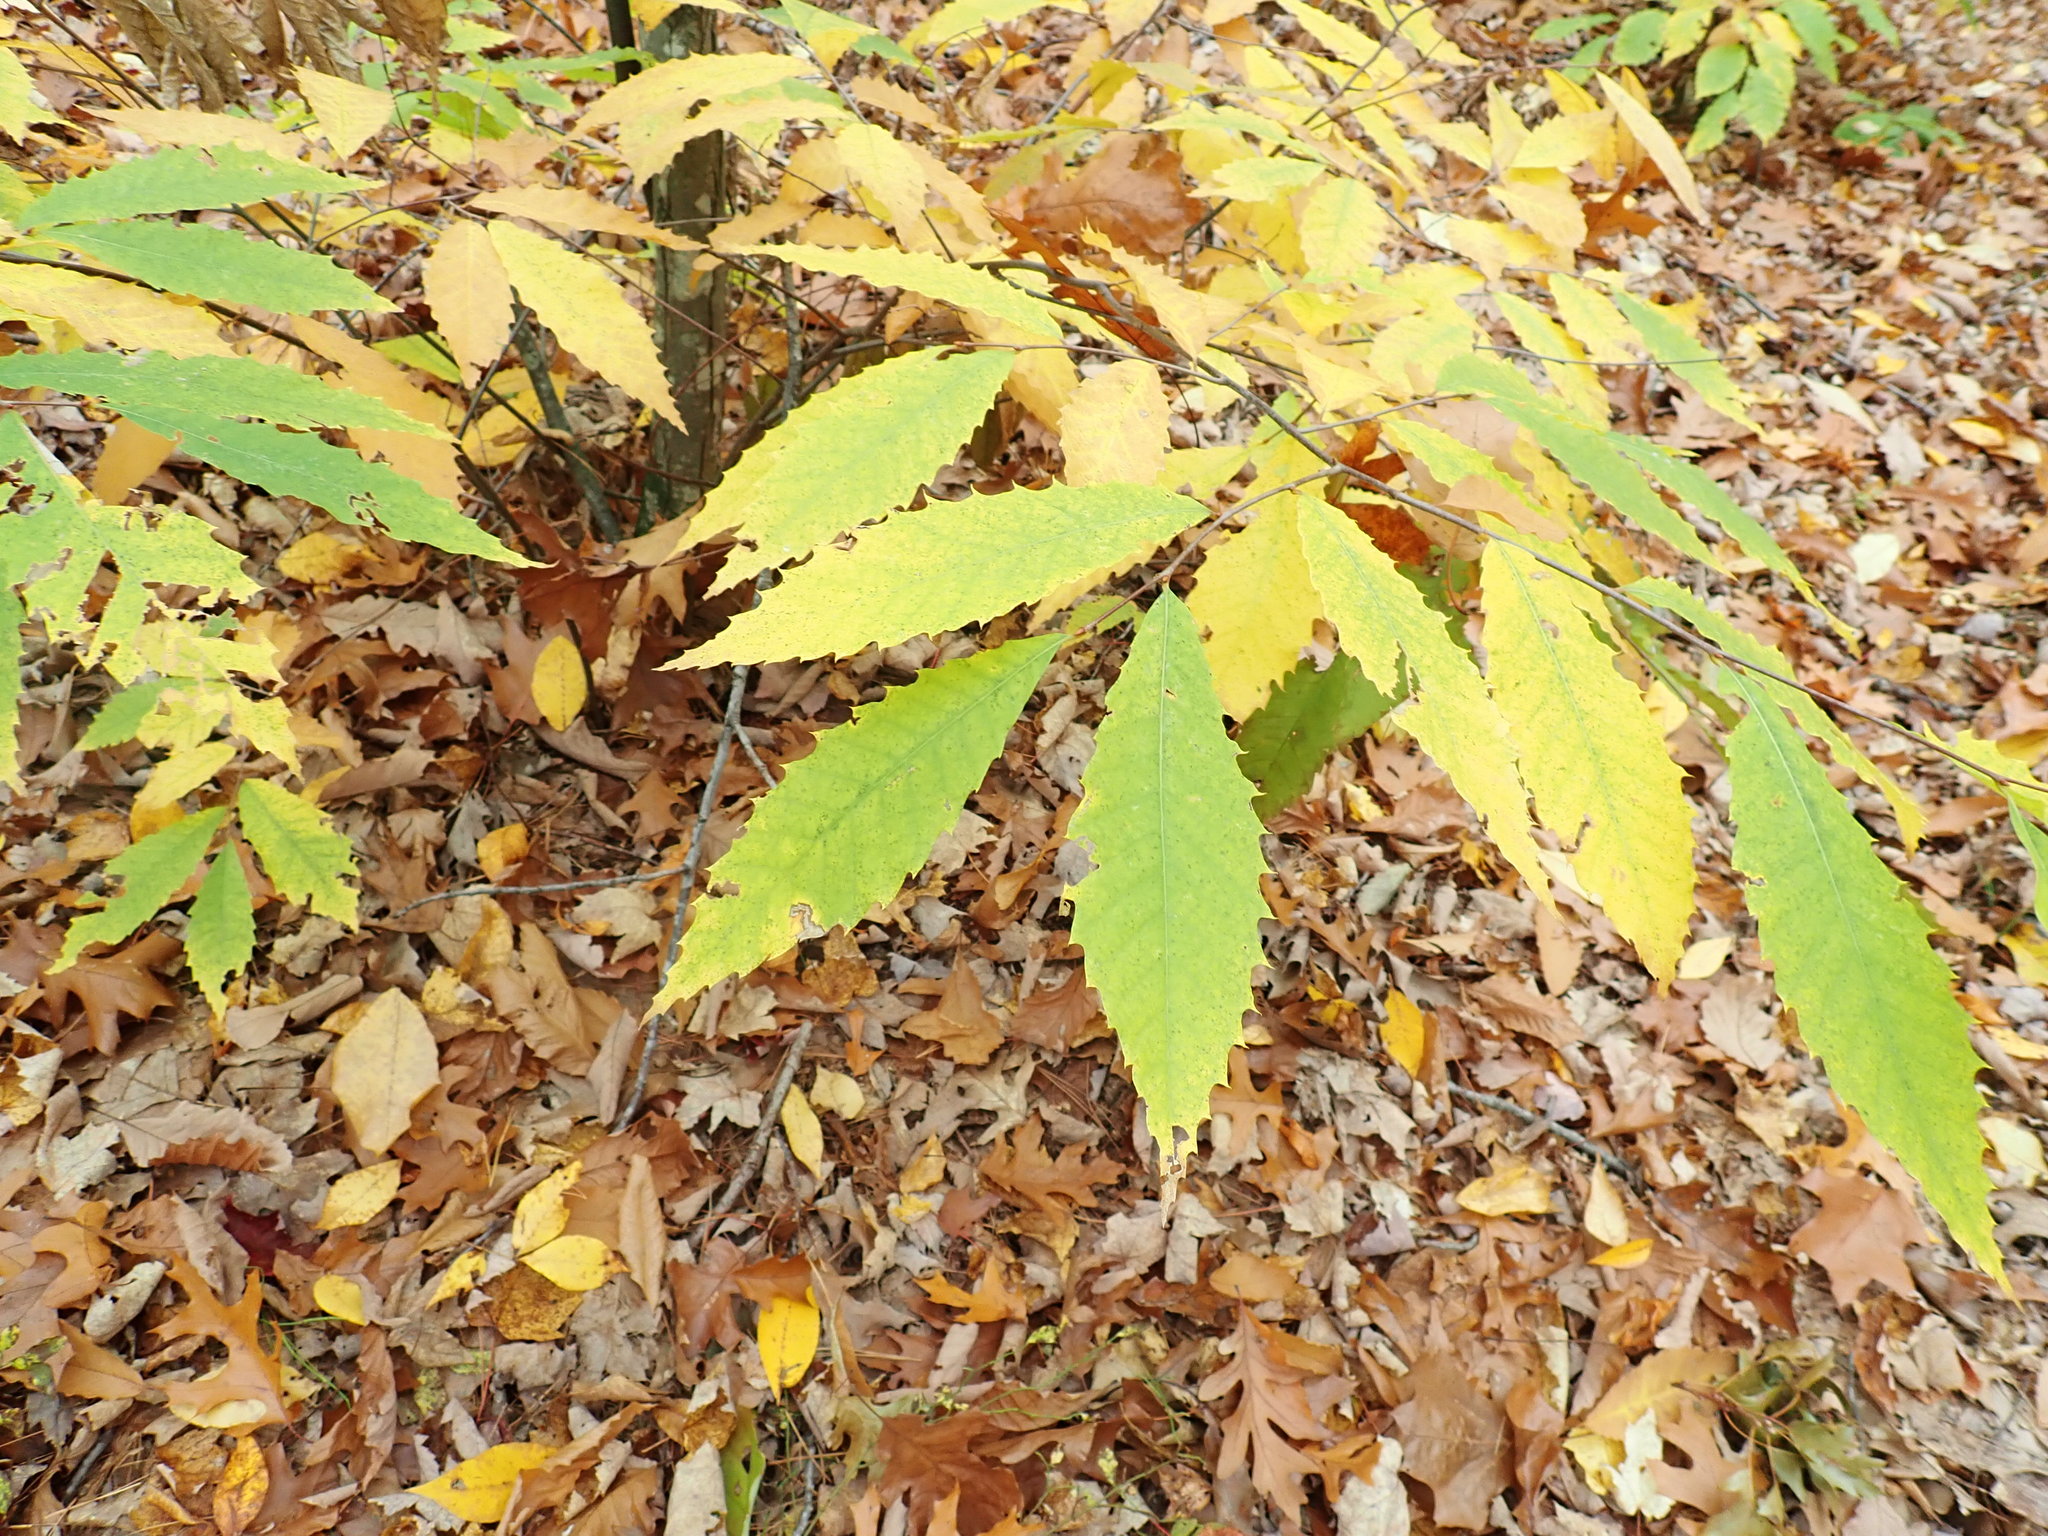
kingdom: Plantae
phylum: Tracheophyta
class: Magnoliopsida
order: Fagales
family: Fagaceae
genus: Castanea
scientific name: Castanea dentata
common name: American chestnut
